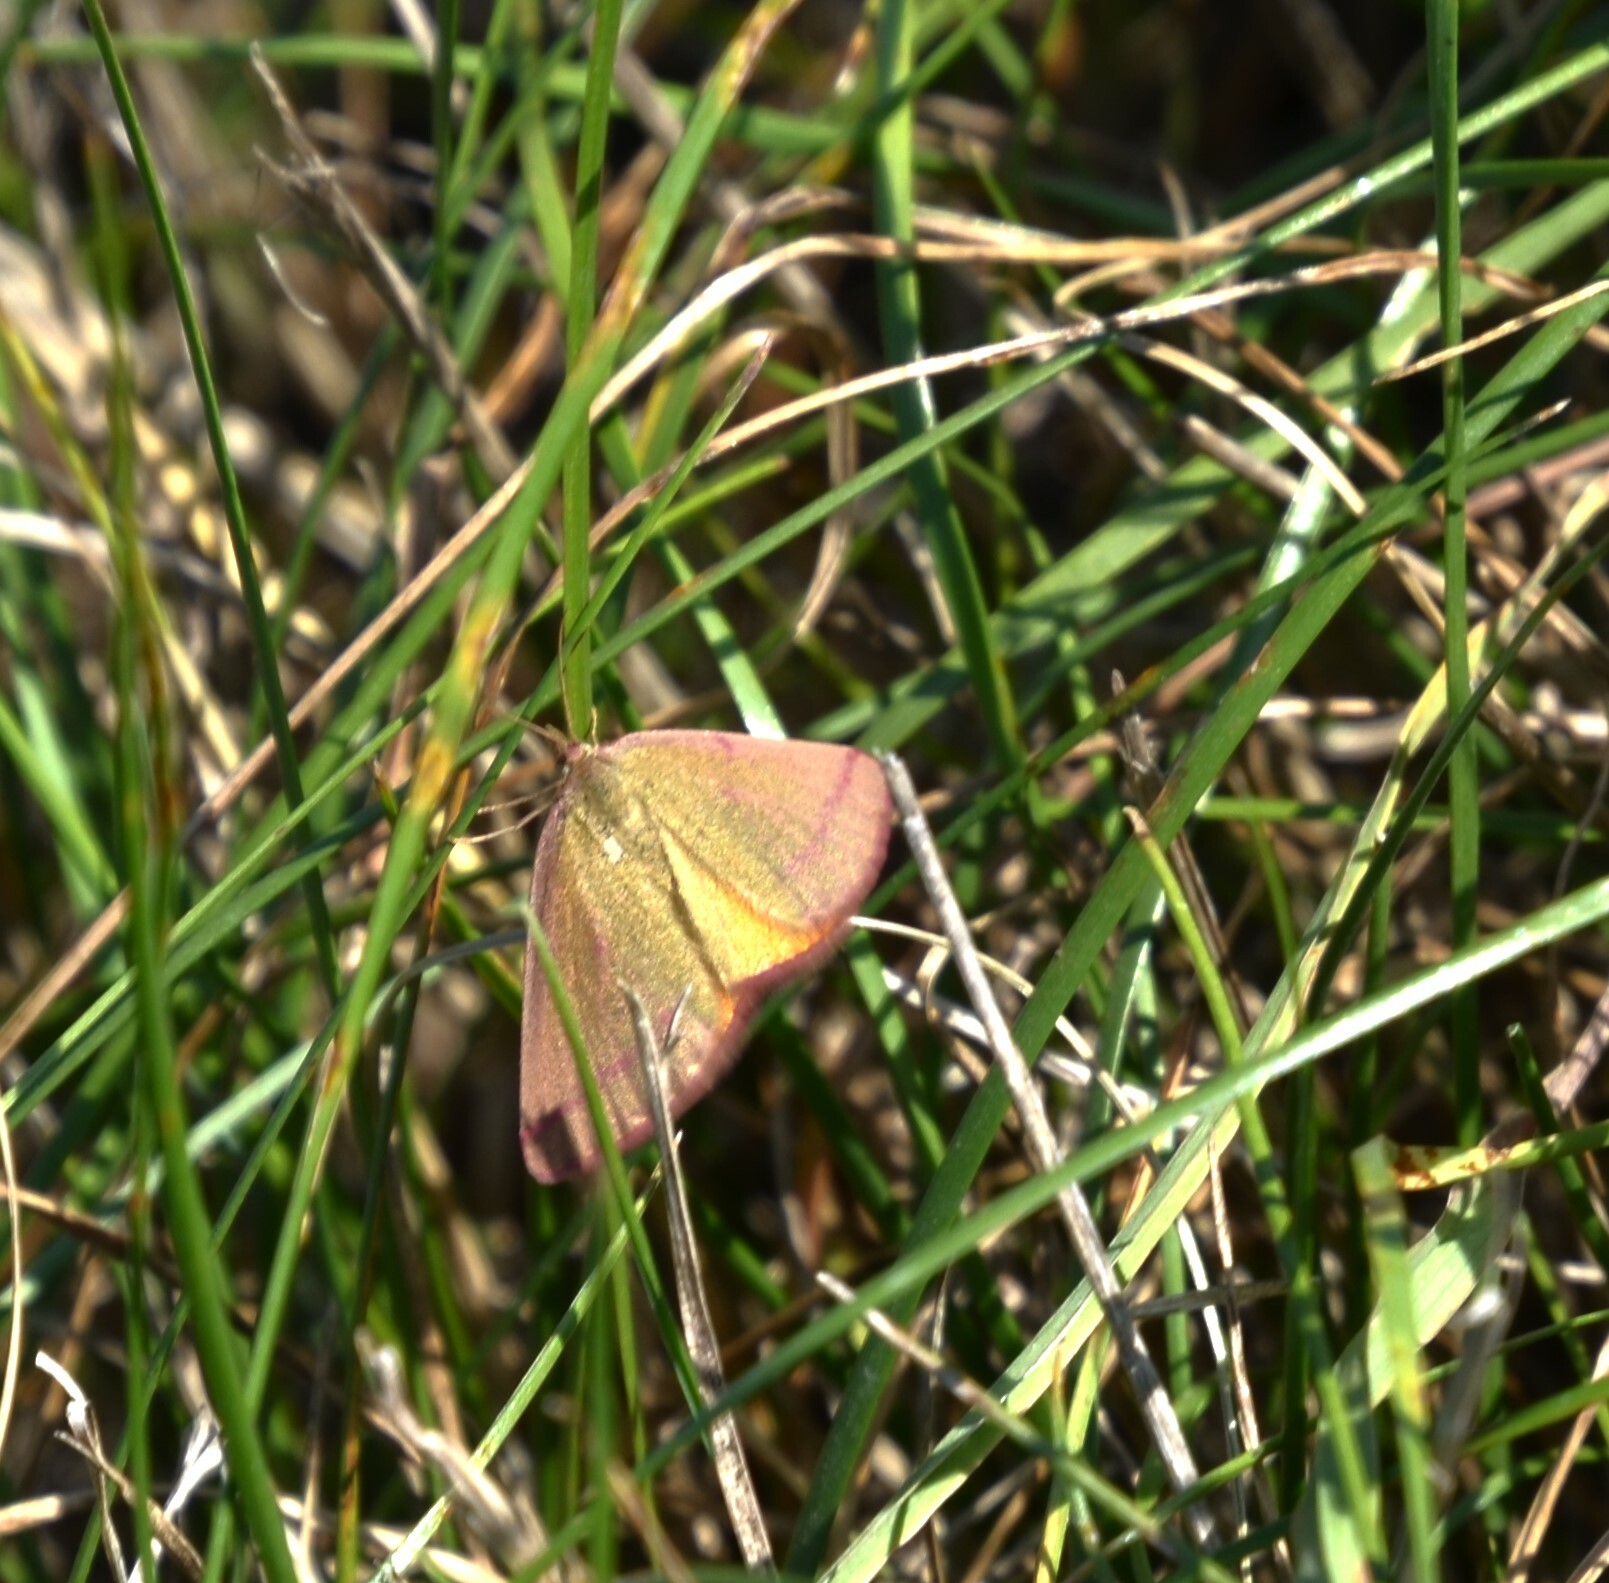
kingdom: Animalia
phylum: Arthropoda
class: Insecta
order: Lepidoptera
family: Geometridae
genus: Lythria
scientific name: Lythria purpuraria
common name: Purple-barred yellow
